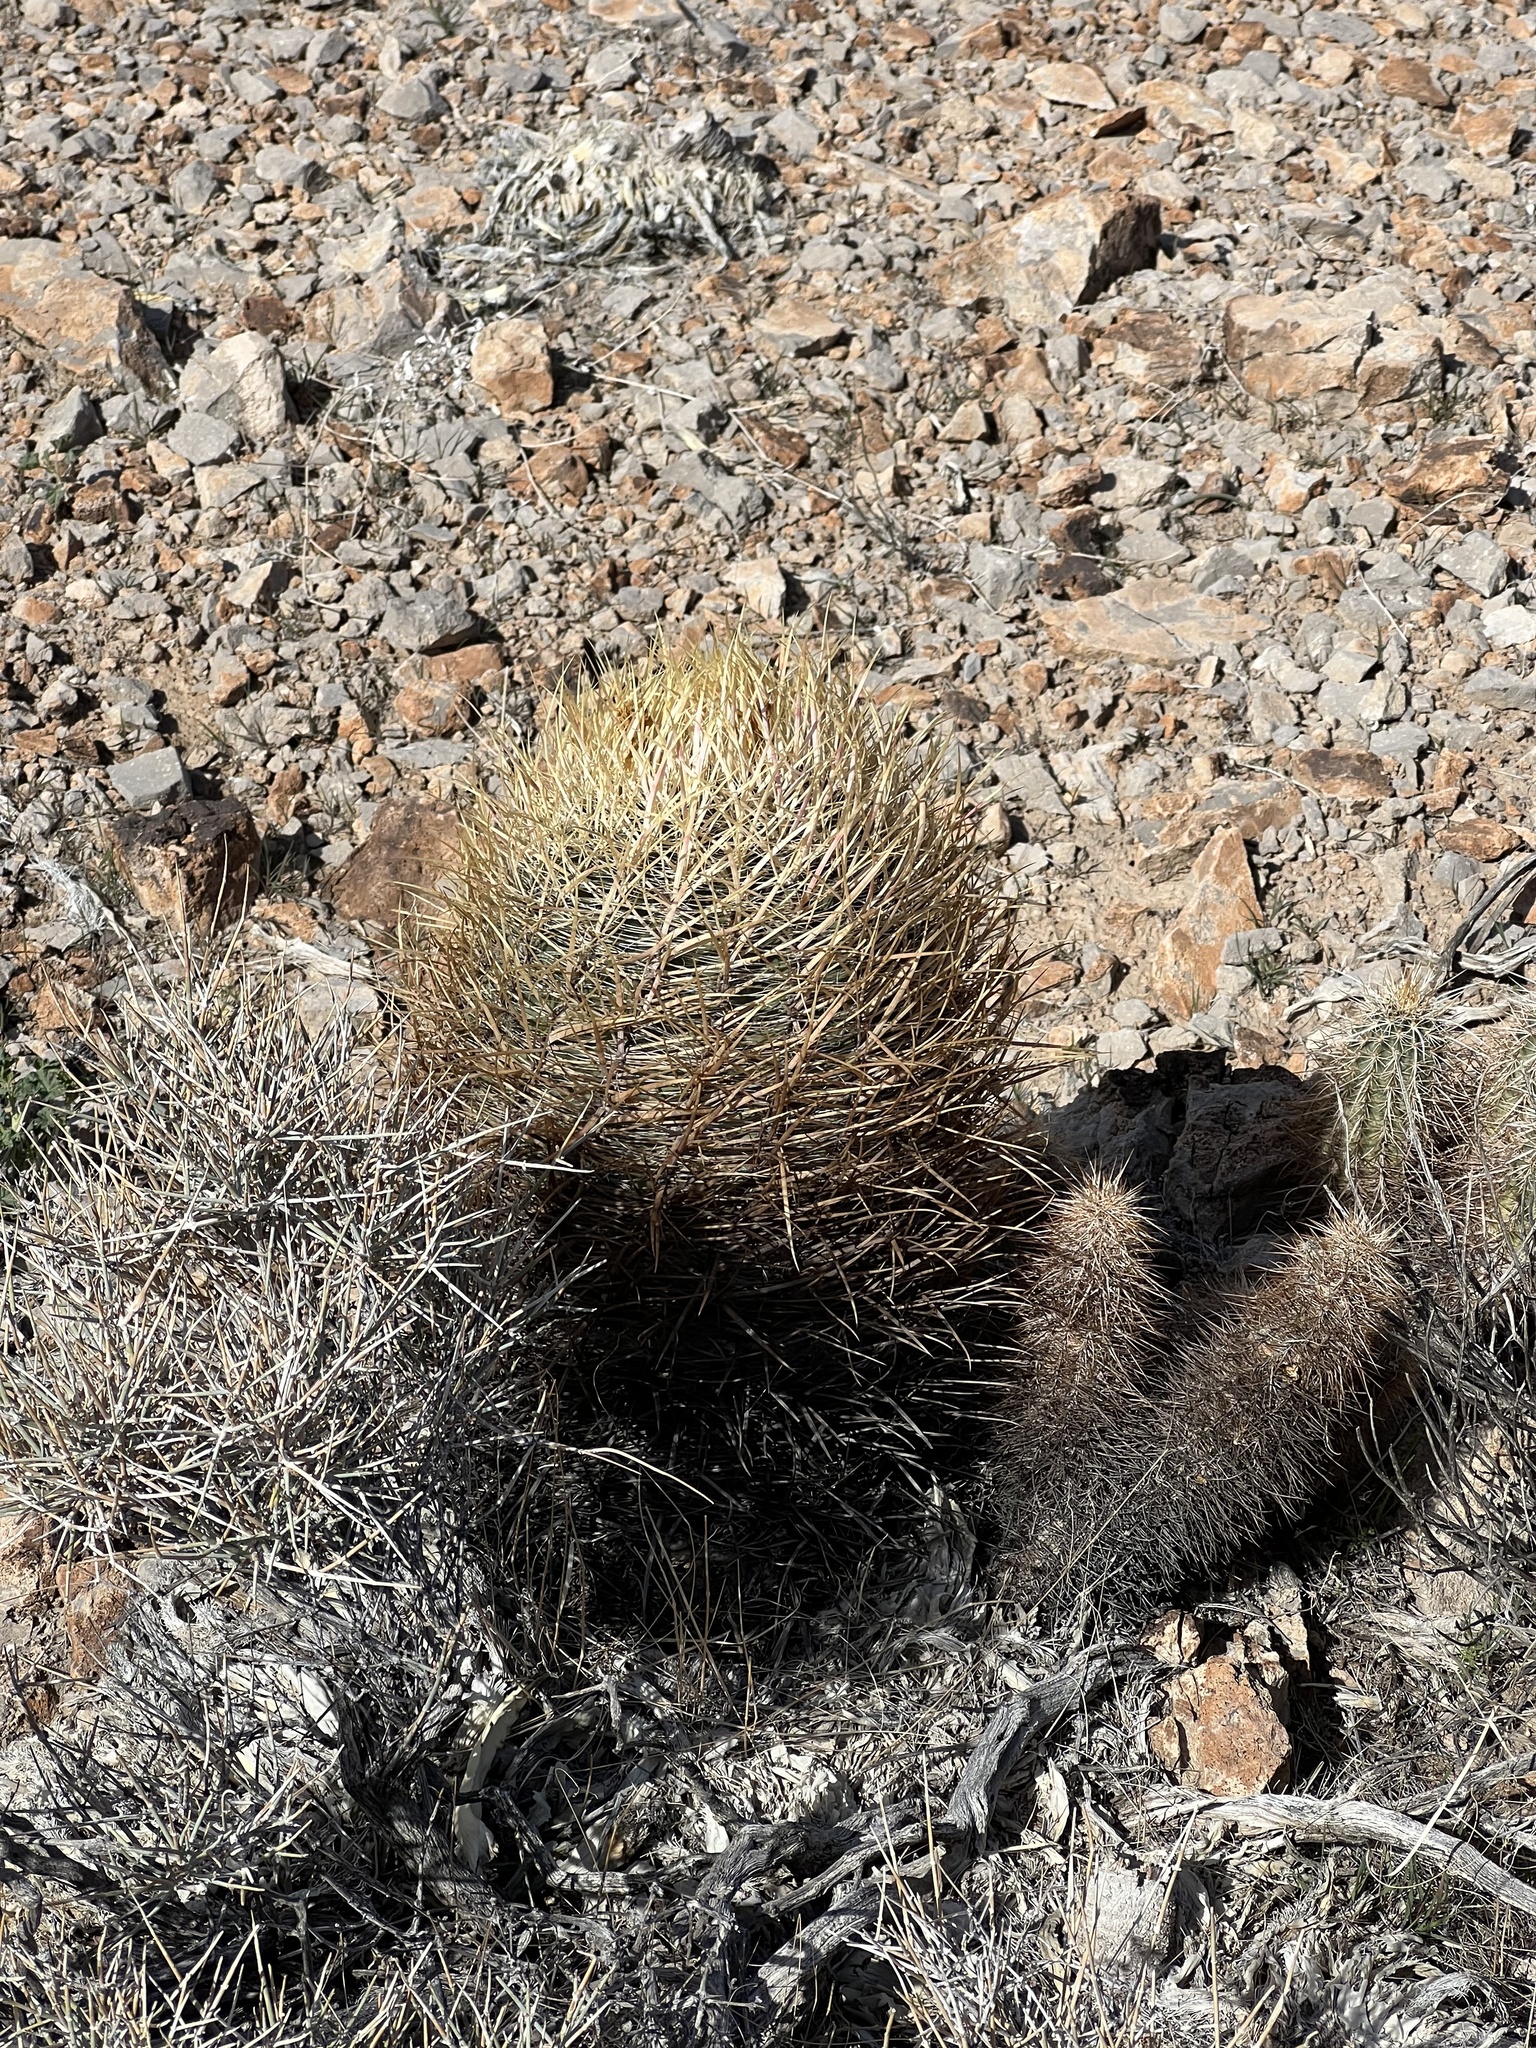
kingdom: Plantae
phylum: Tracheophyta
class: Magnoliopsida
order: Caryophyllales
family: Cactaceae
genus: Ferocactus
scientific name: Ferocactus cylindraceus
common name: California barrel cactus
